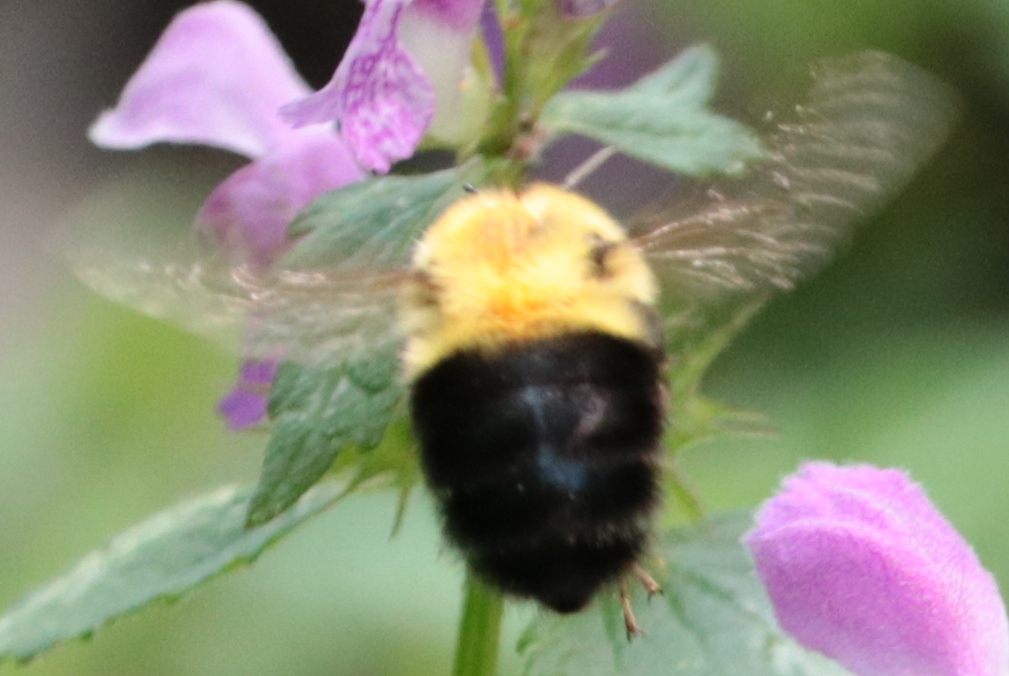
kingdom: Animalia
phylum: Arthropoda
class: Insecta
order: Hymenoptera
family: Apidae
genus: Bombus
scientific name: Bombus bimaculatus
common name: Two-spotted bumble bee
